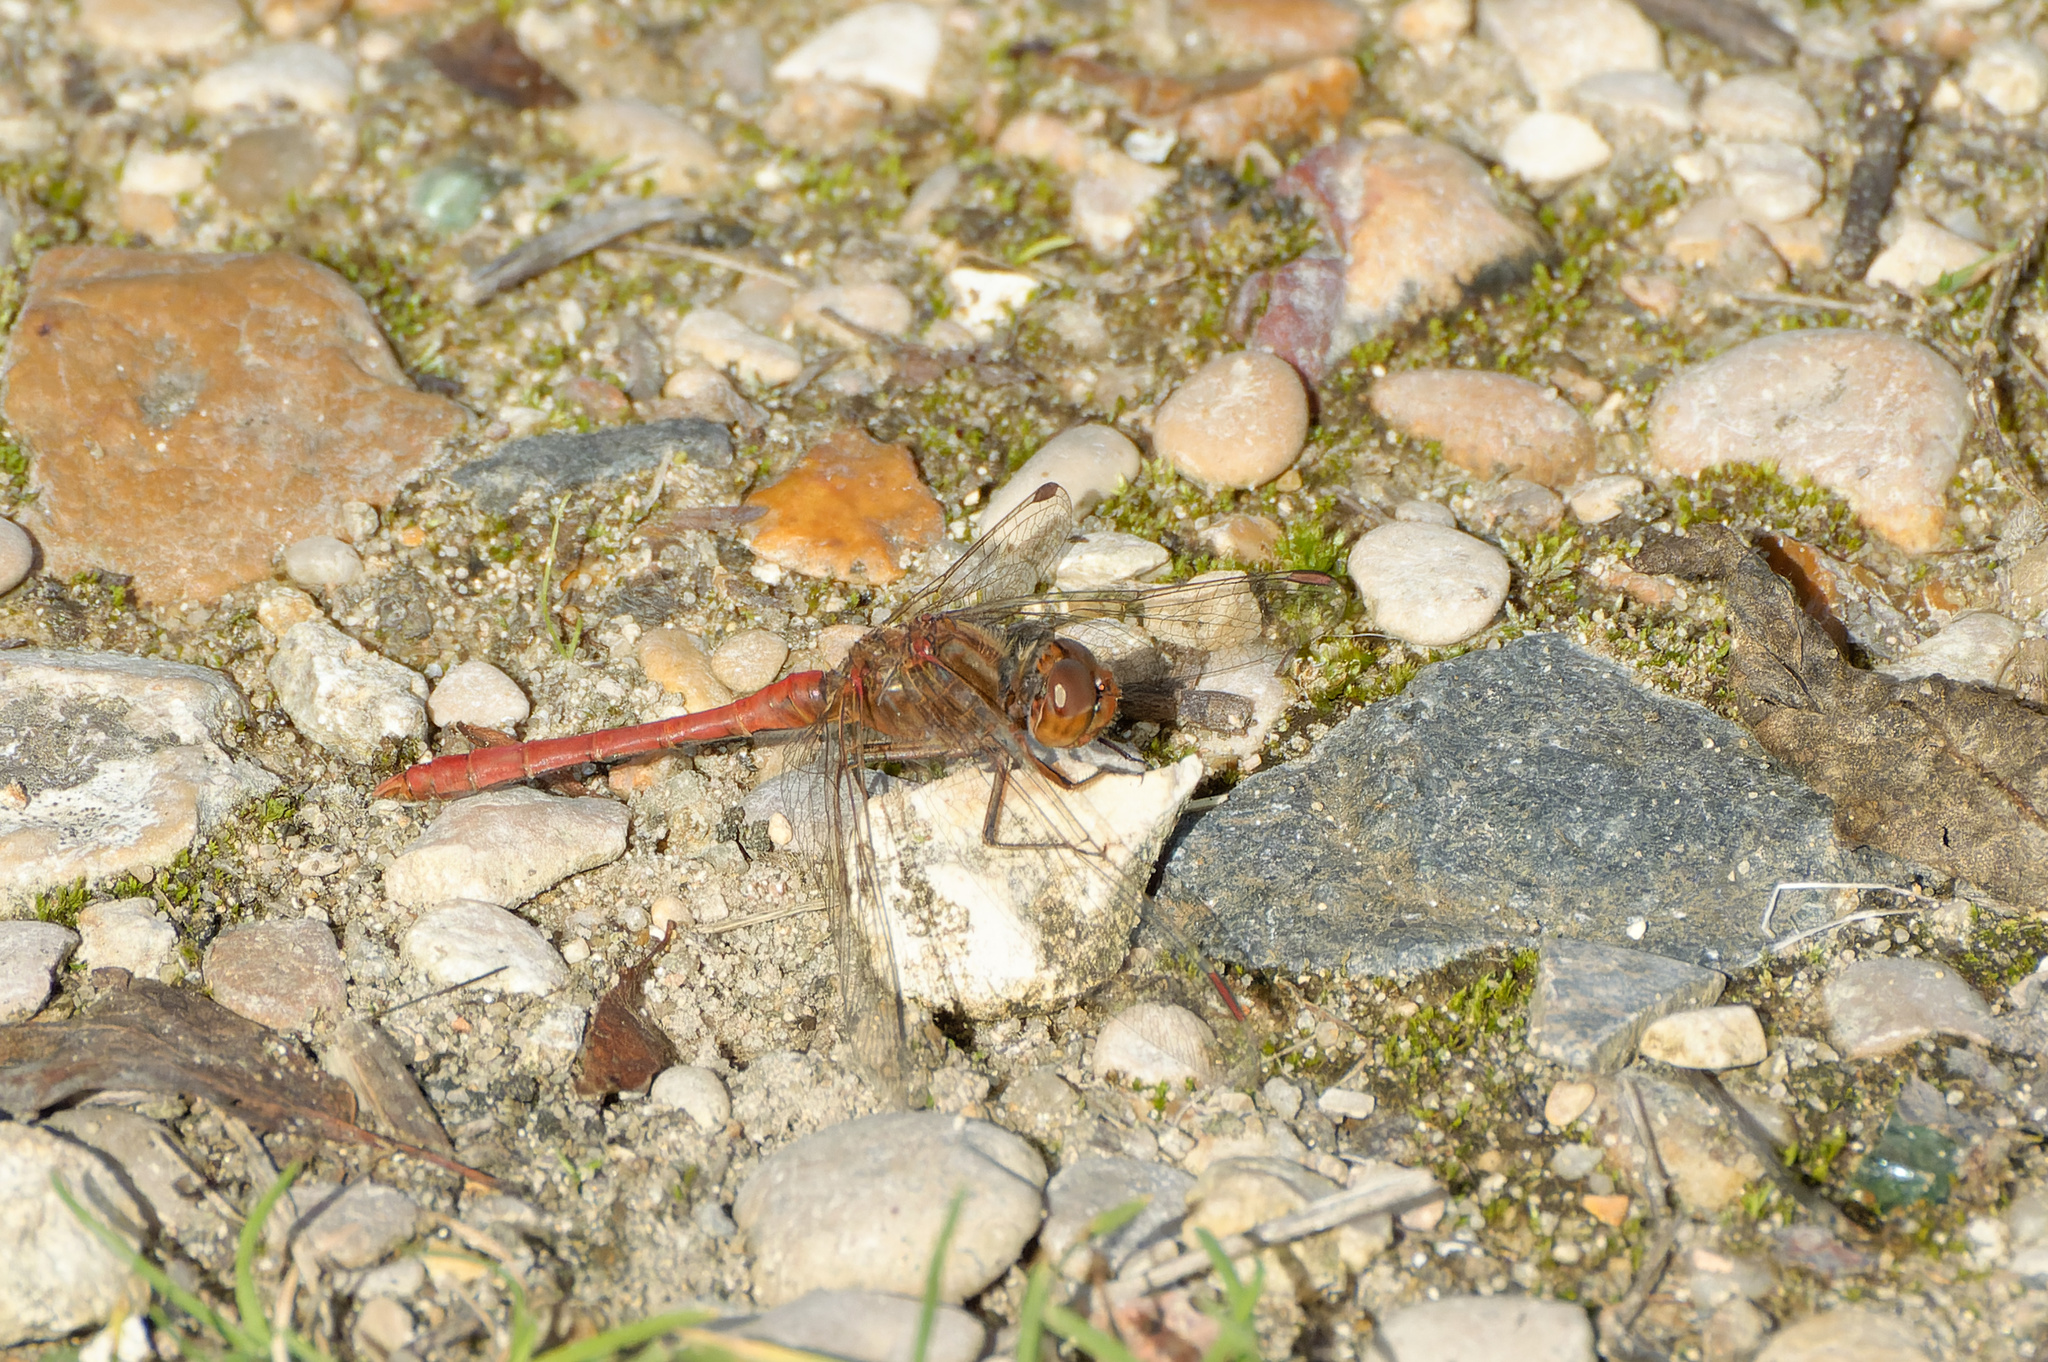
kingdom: Animalia
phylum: Arthropoda
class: Insecta
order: Odonata
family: Libellulidae
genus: Sympetrum
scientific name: Sympetrum meridionale
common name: Southern darter
